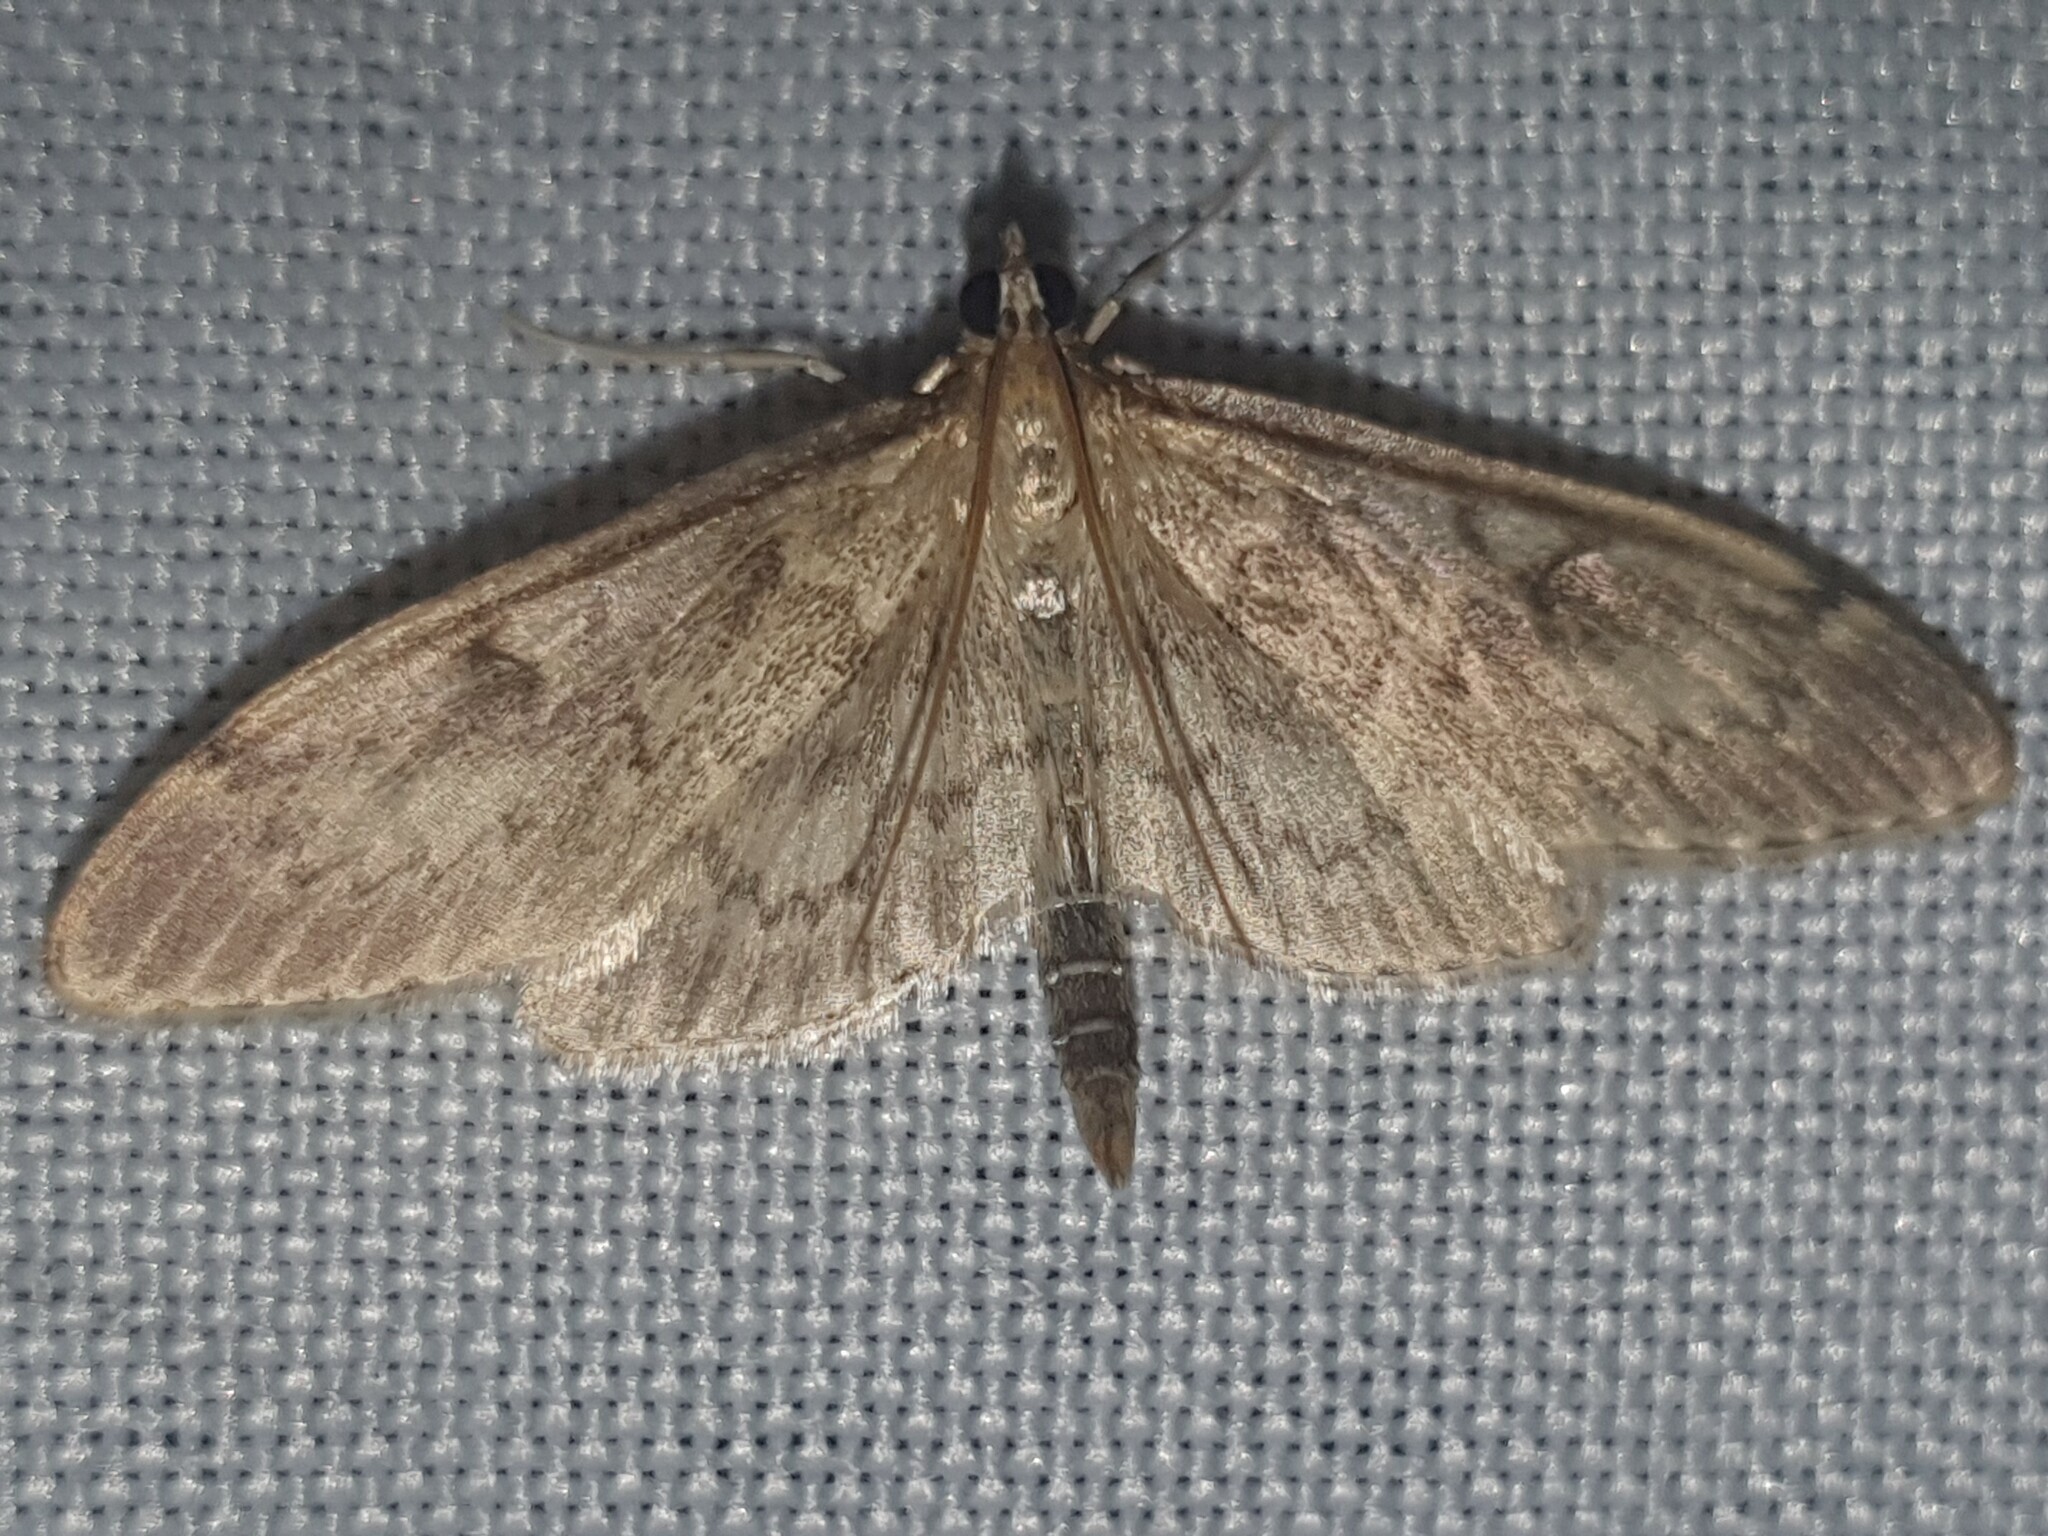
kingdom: Animalia
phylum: Arthropoda
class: Insecta
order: Lepidoptera
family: Crambidae
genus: Anania
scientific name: Anania lancealis
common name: Long-winged pearl
